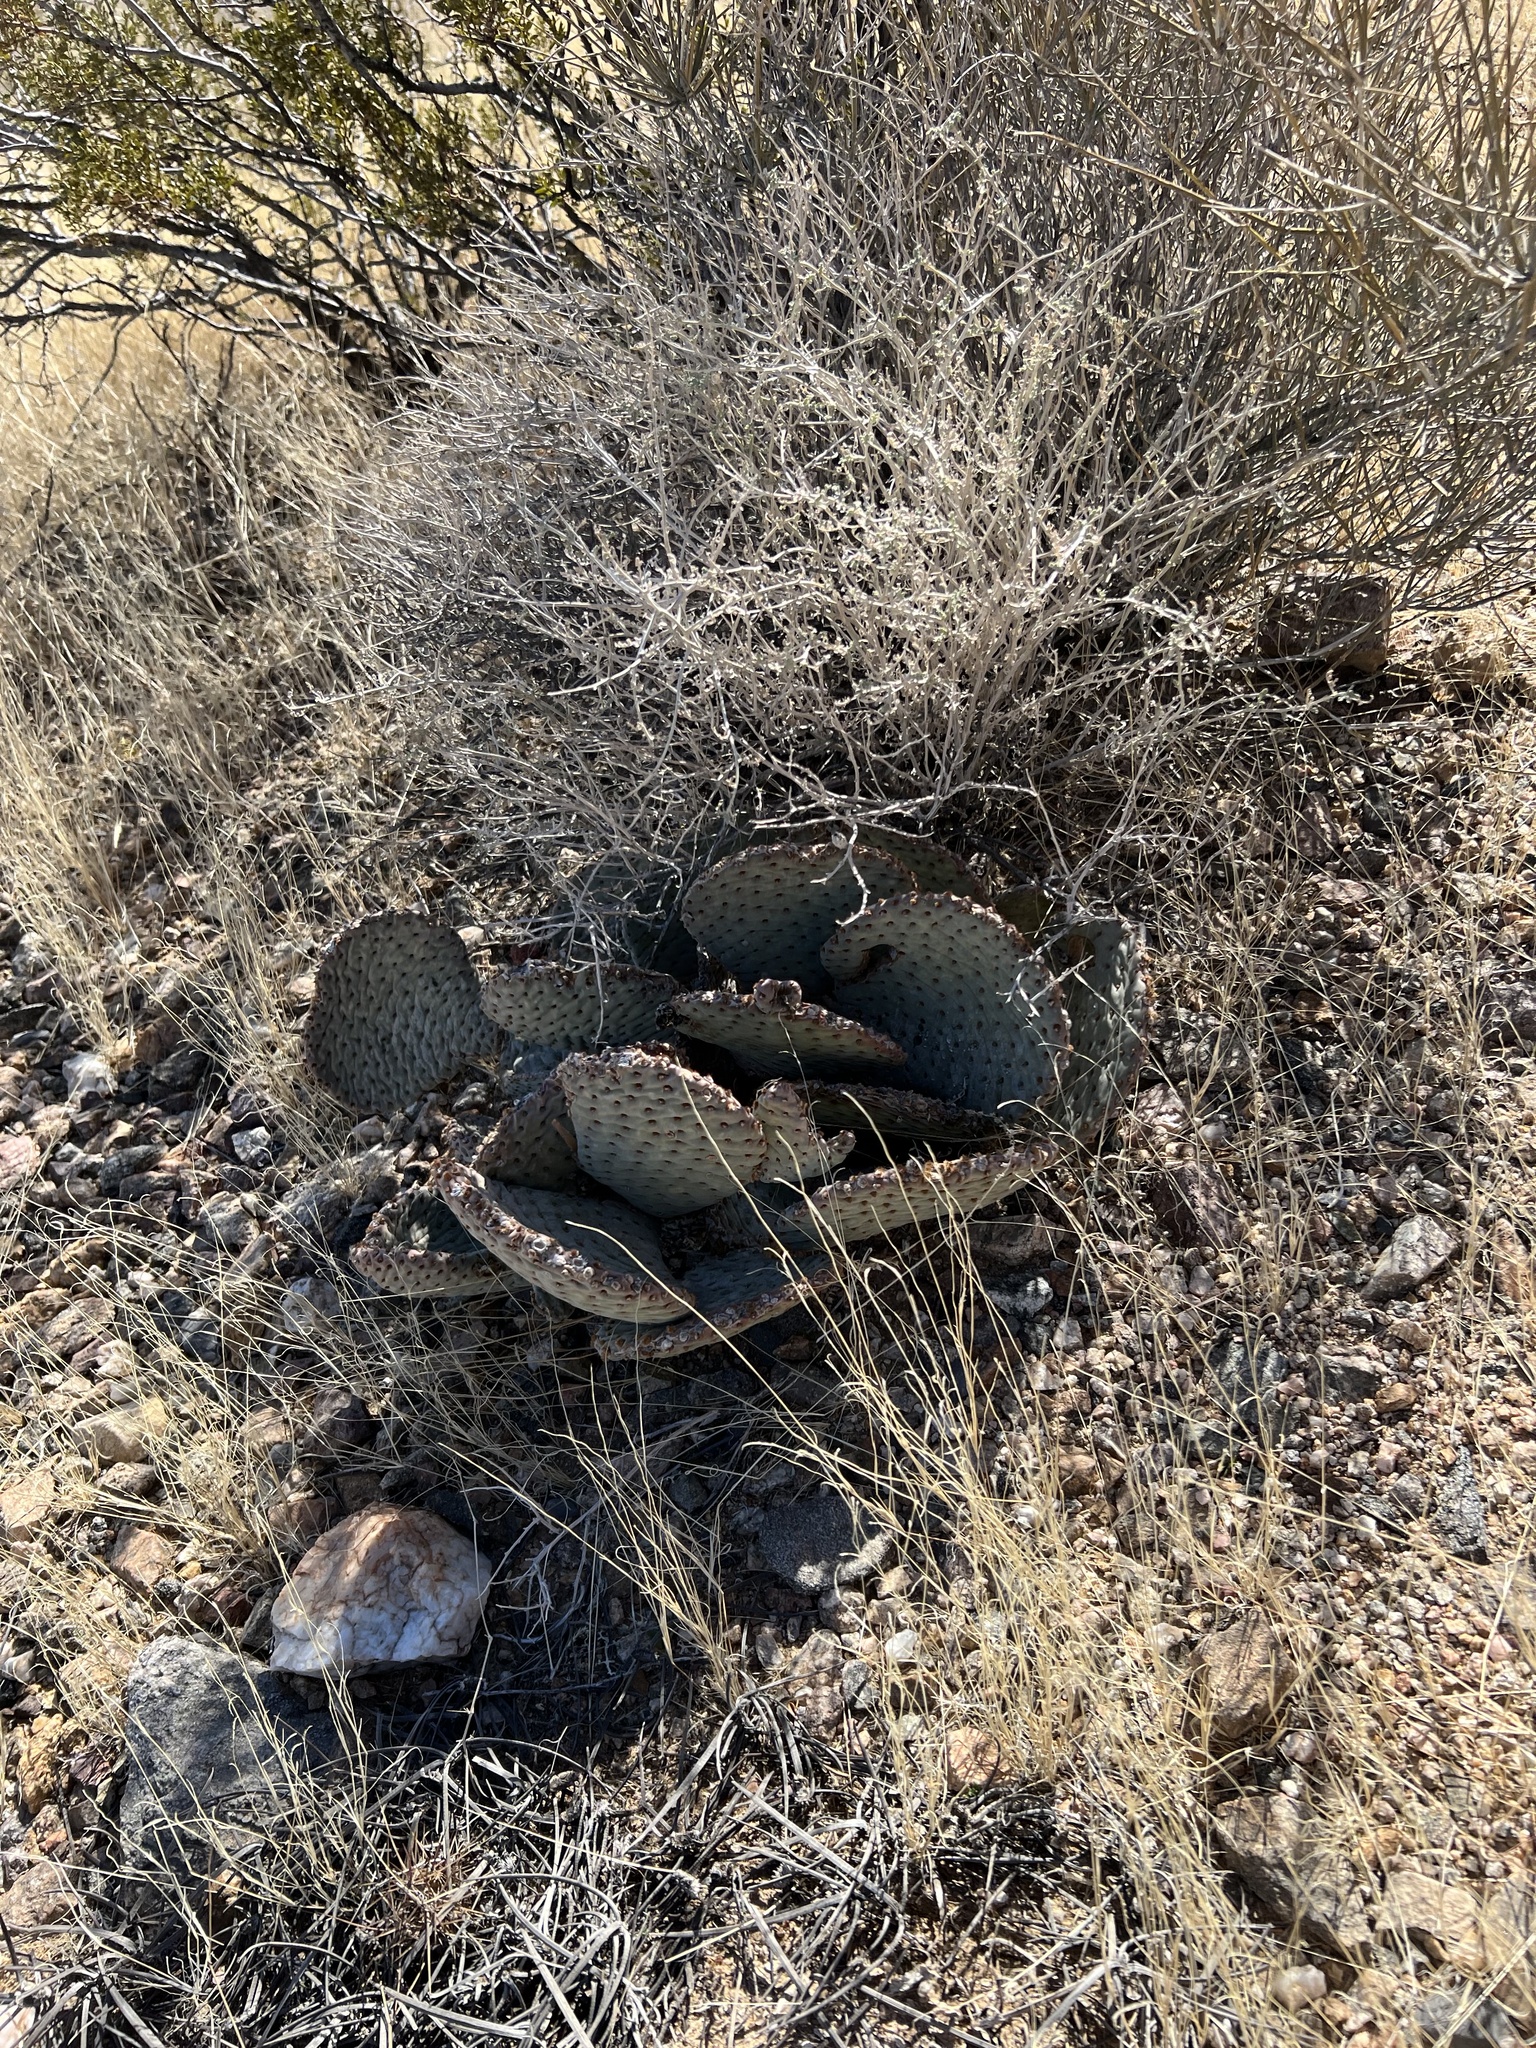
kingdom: Plantae
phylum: Tracheophyta
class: Magnoliopsida
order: Caryophyllales
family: Cactaceae
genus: Opuntia
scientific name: Opuntia basilaris
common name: Beavertail prickly-pear
